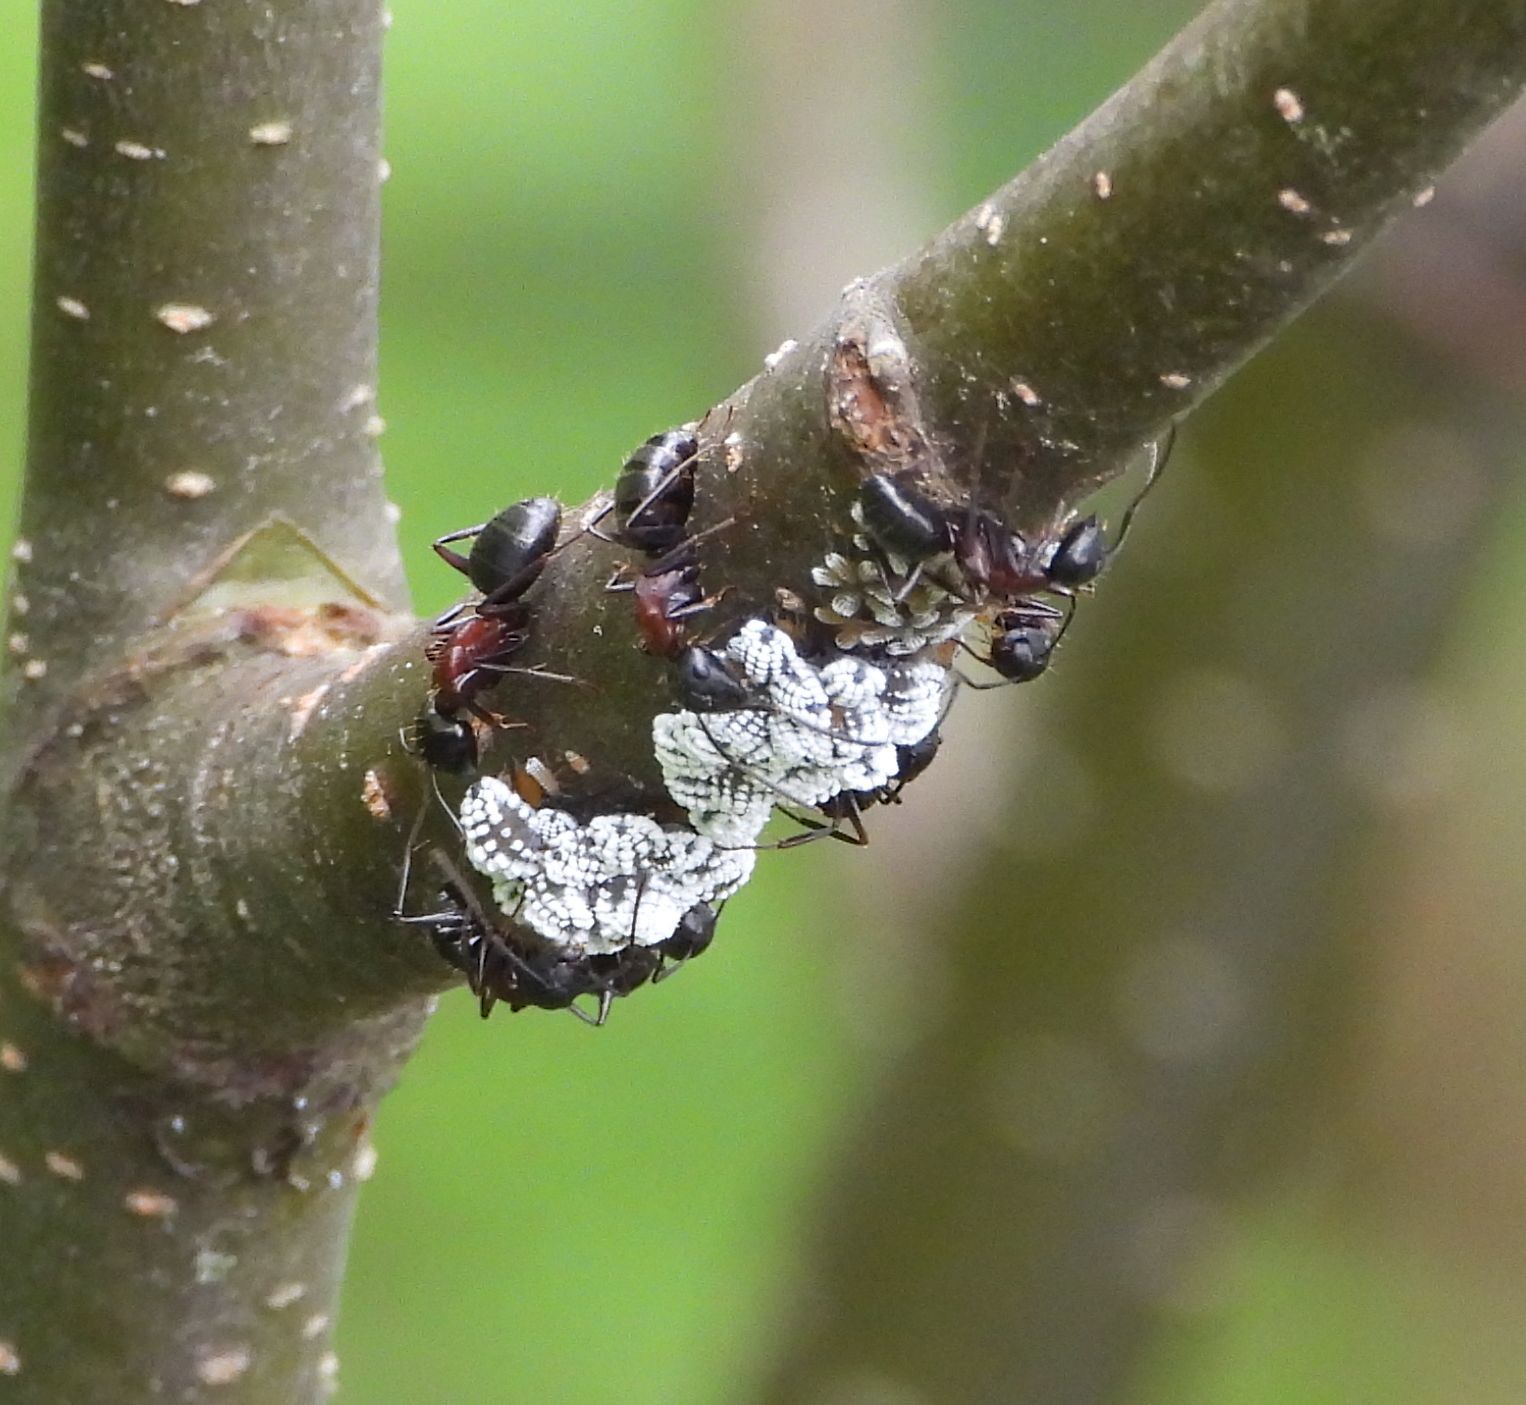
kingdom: Animalia
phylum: Arthropoda
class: Insecta
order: Hemiptera
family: Aphididae
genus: Prociphilus
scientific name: Prociphilus tessellatus
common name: Woolly alder aphid
